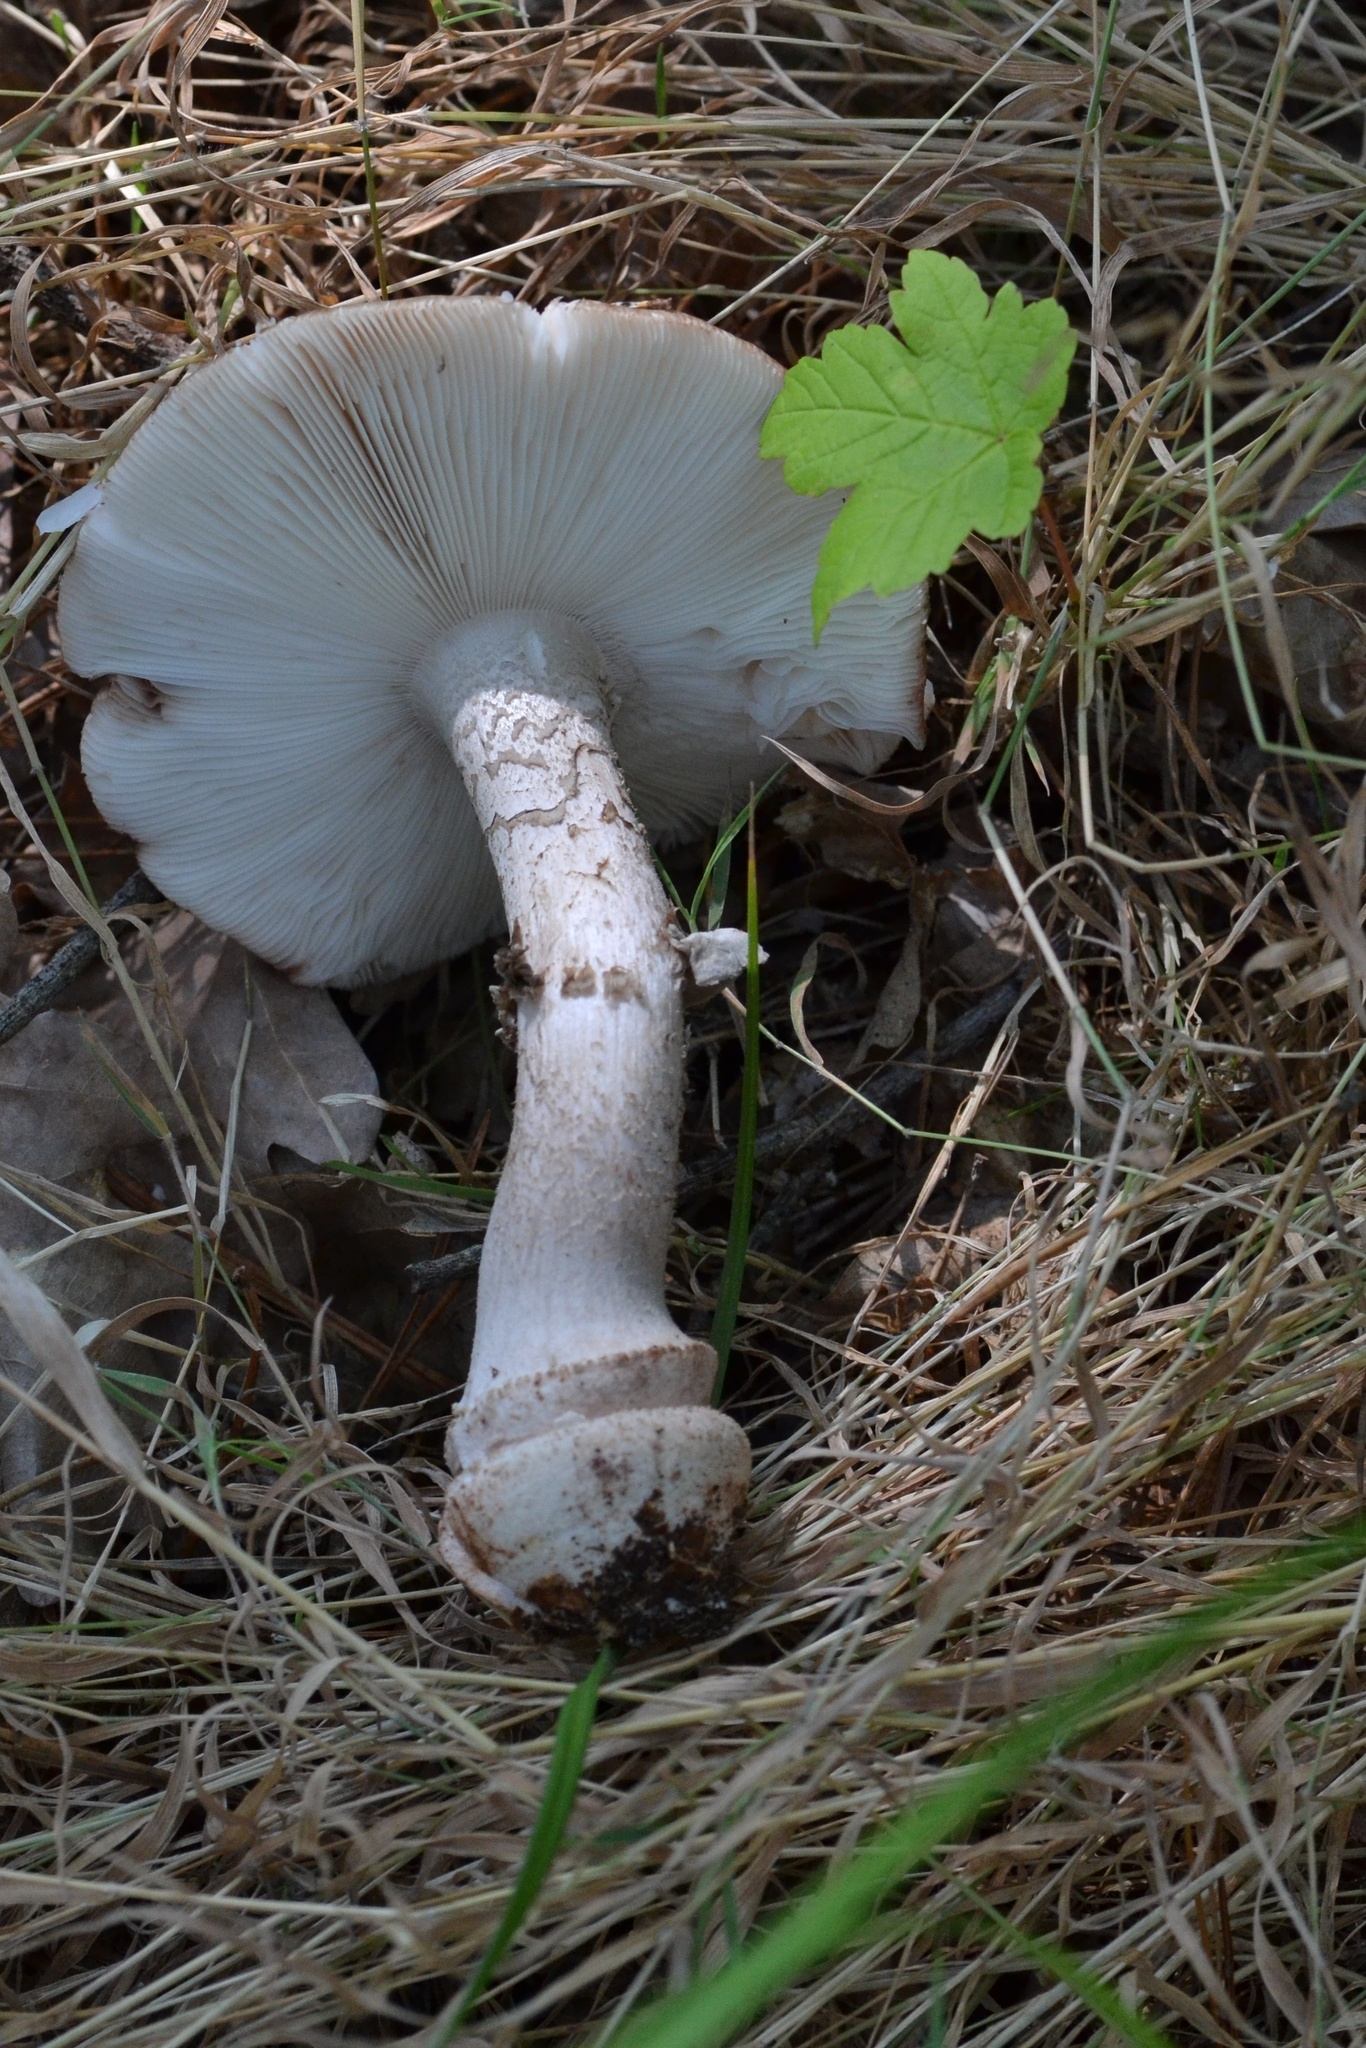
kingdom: Fungi
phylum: Basidiomycota
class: Agaricomycetes
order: Agaricales
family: Amanitaceae
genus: Amanita
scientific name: Amanita rubescens
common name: Blusher
